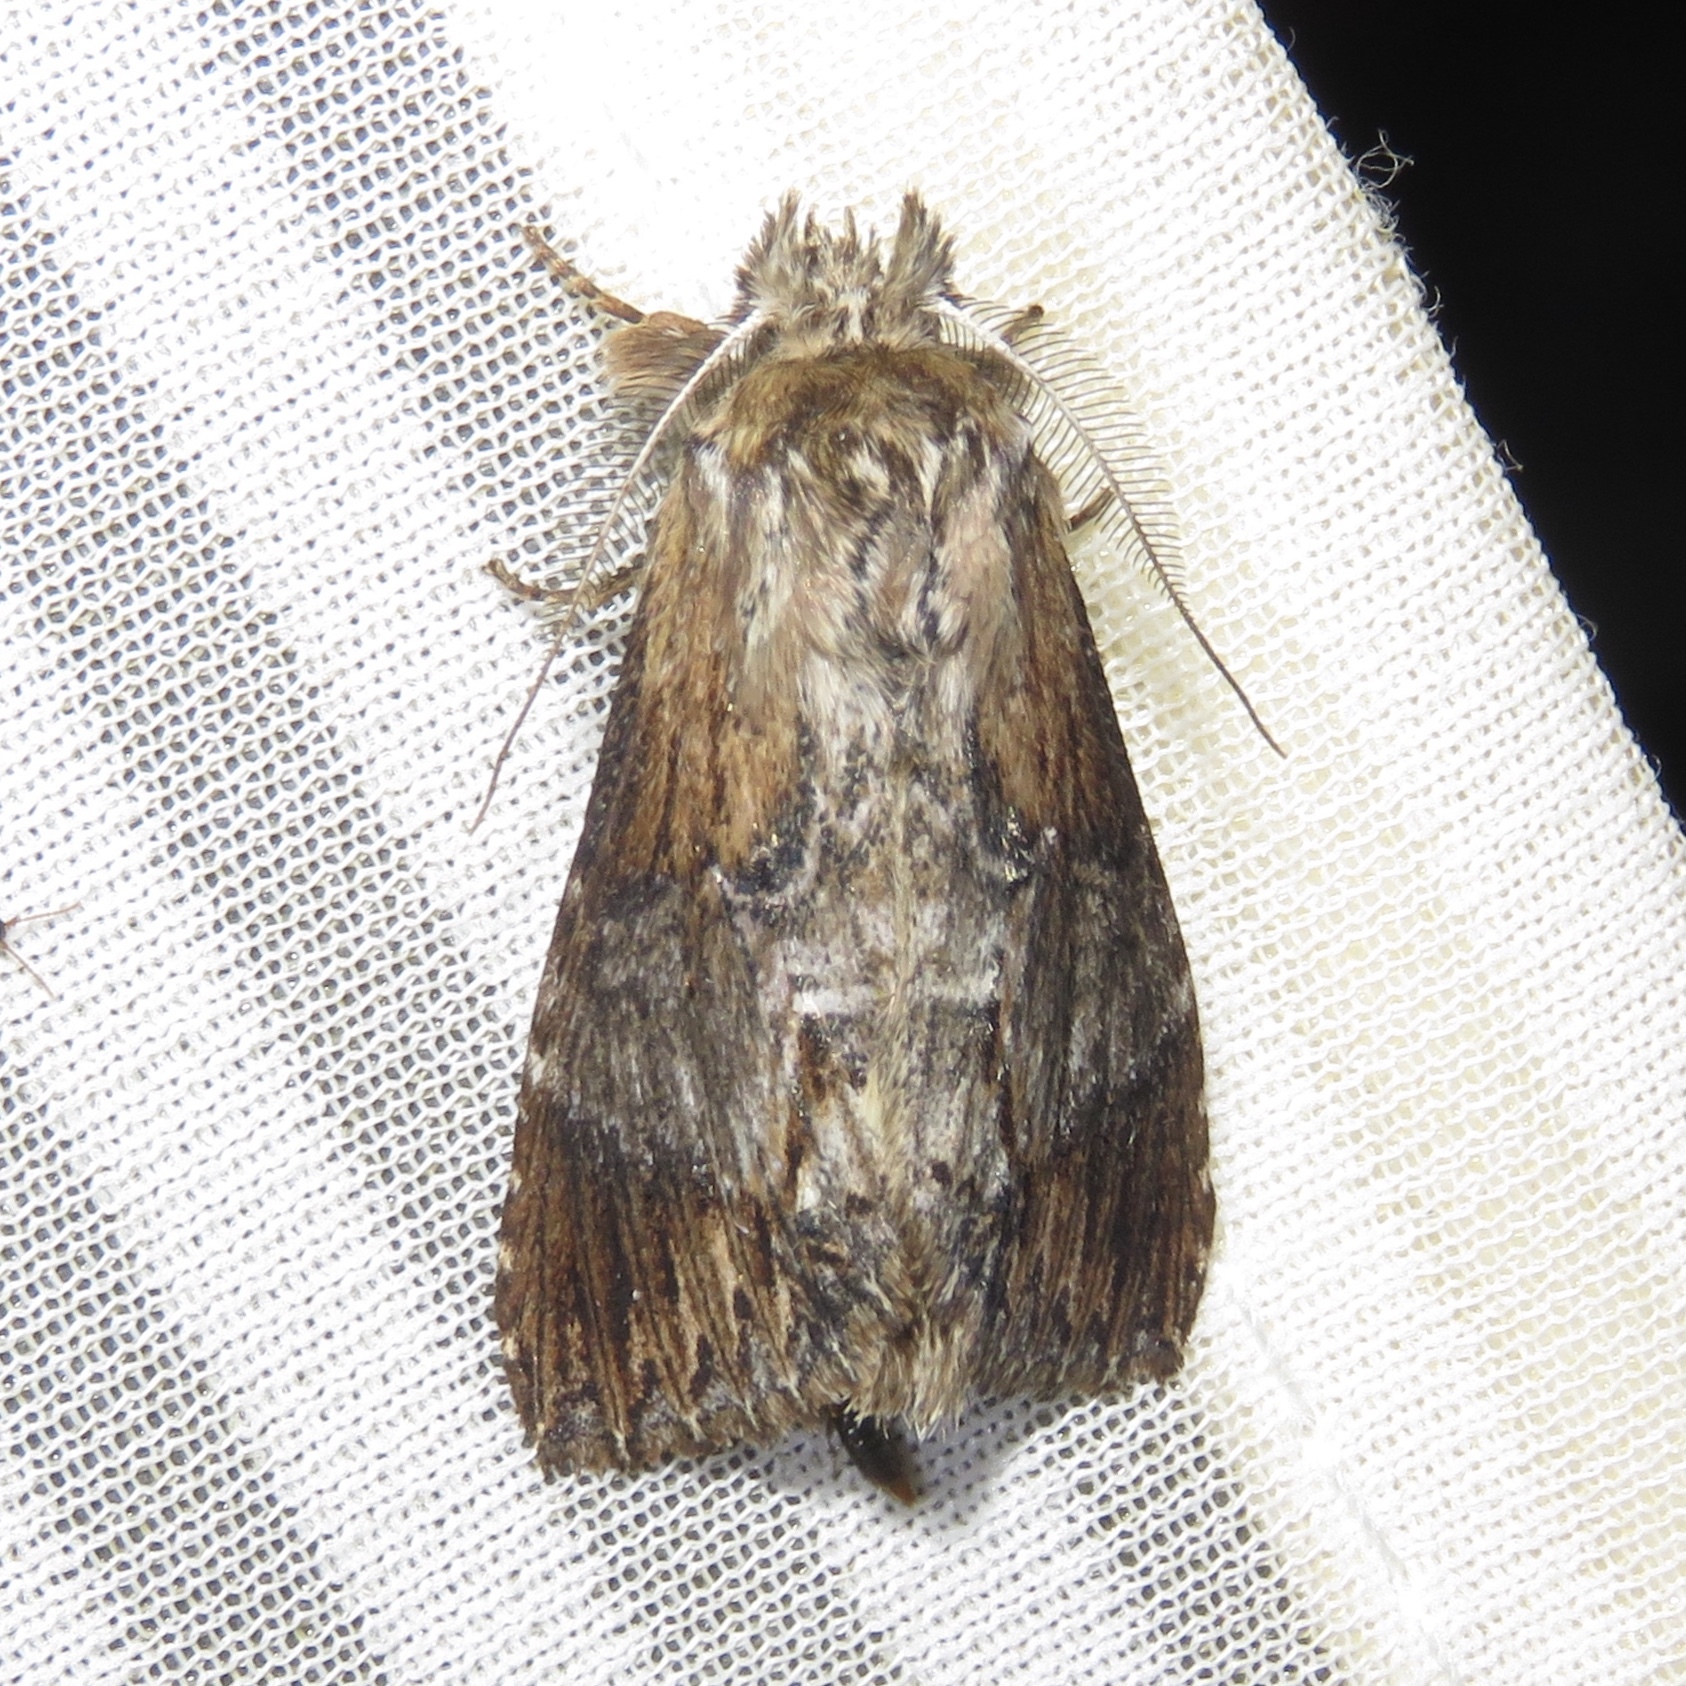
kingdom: Animalia
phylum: Arthropoda
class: Insecta
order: Lepidoptera
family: Notodontidae
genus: Dasylophia
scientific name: Dasylophia thyatiroides
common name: Gray-patched prominent
